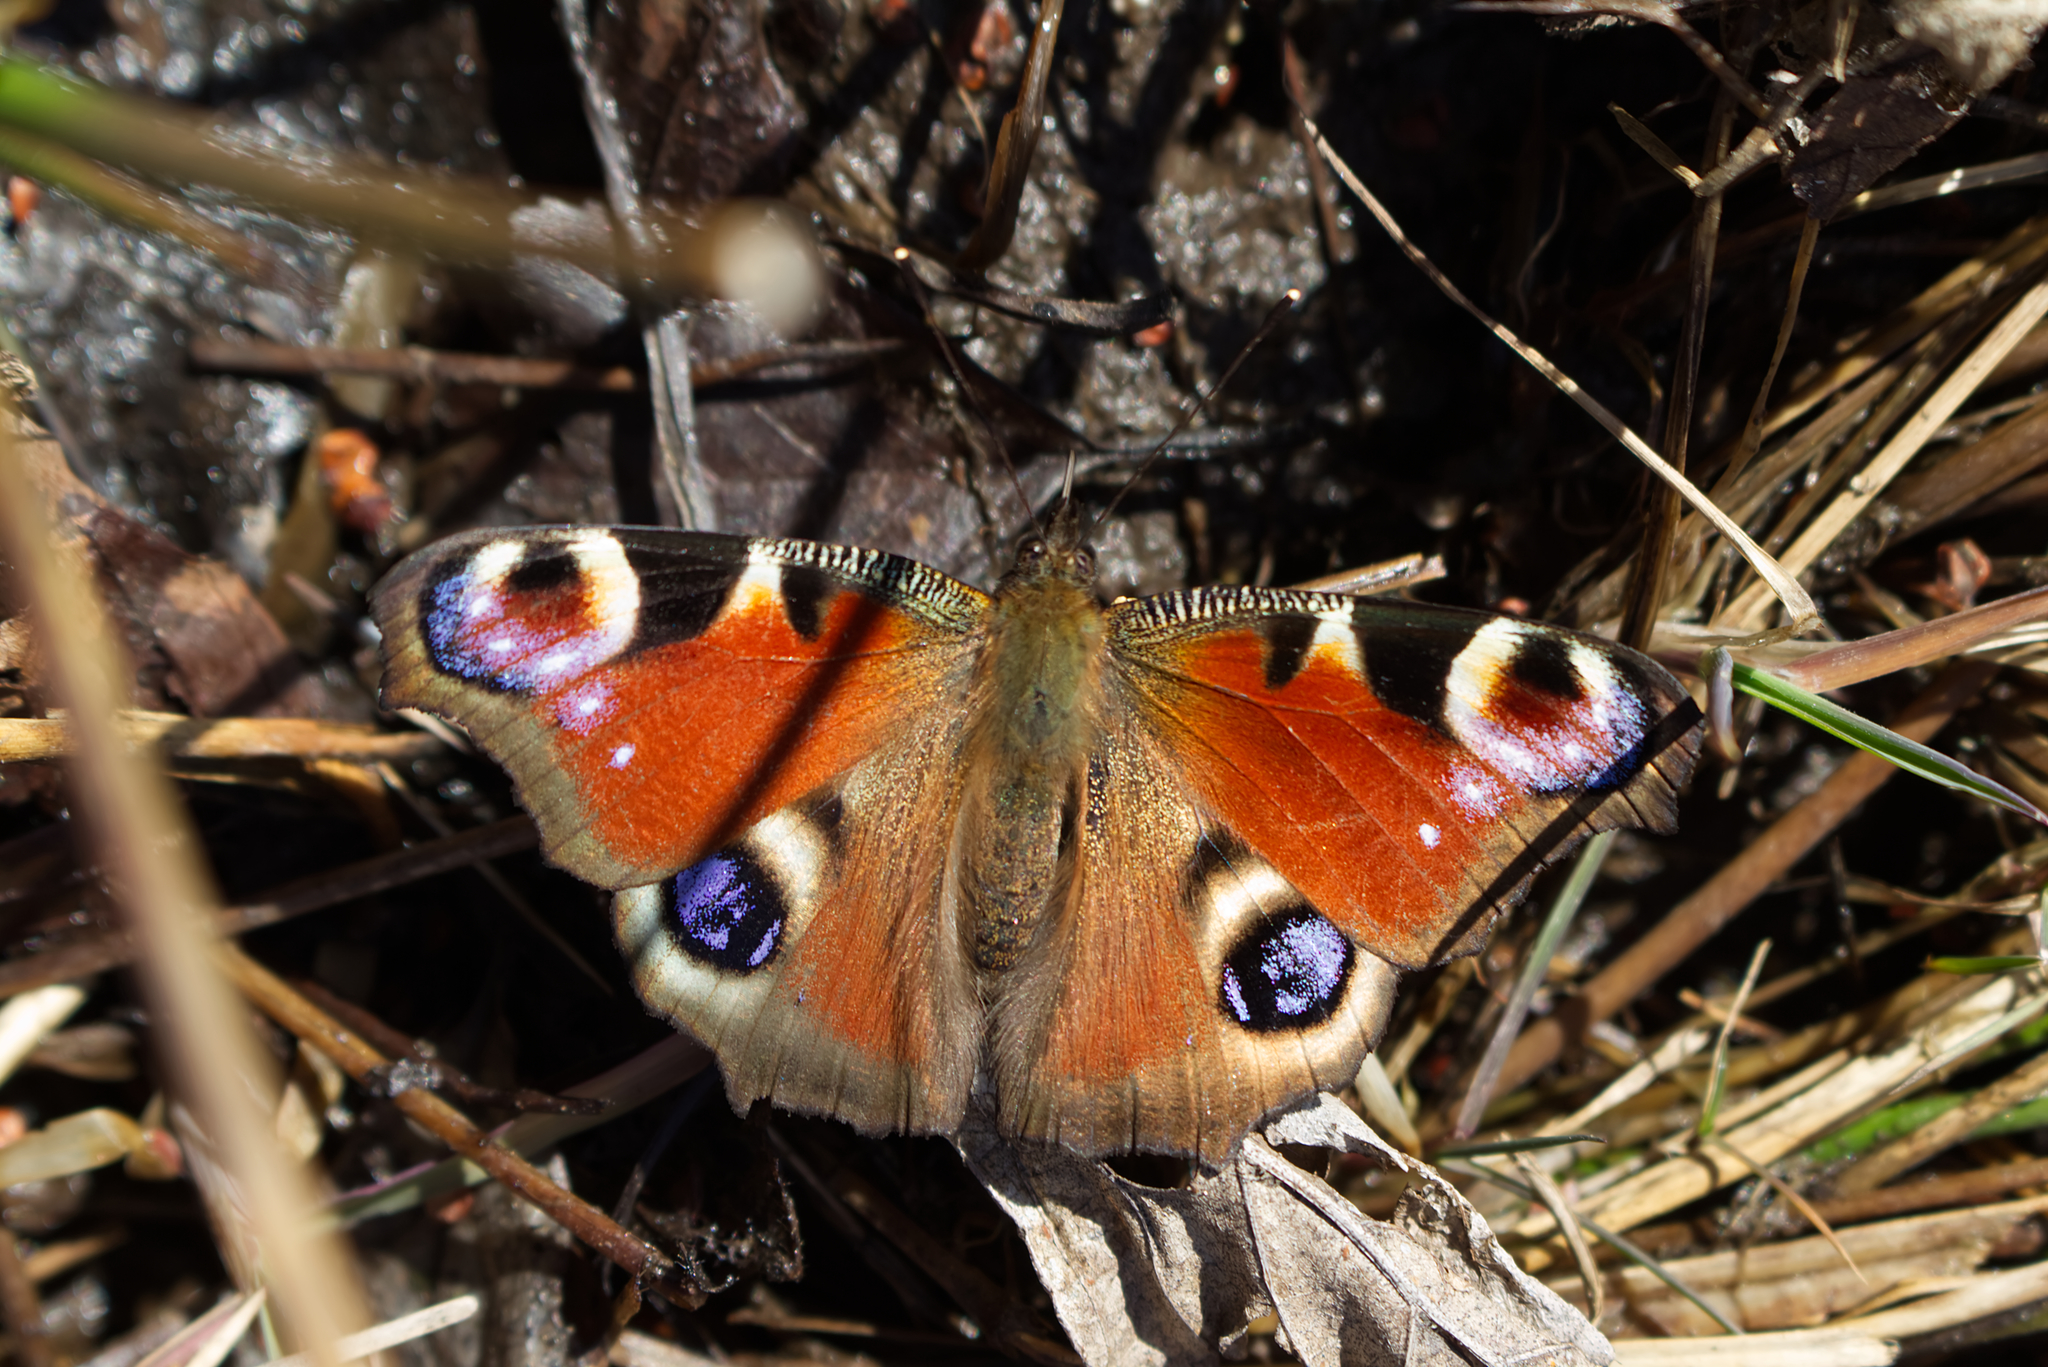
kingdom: Animalia
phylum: Arthropoda
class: Insecta
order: Lepidoptera
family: Nymphalidae
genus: Aglais
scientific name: Aglais io
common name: Peacock
